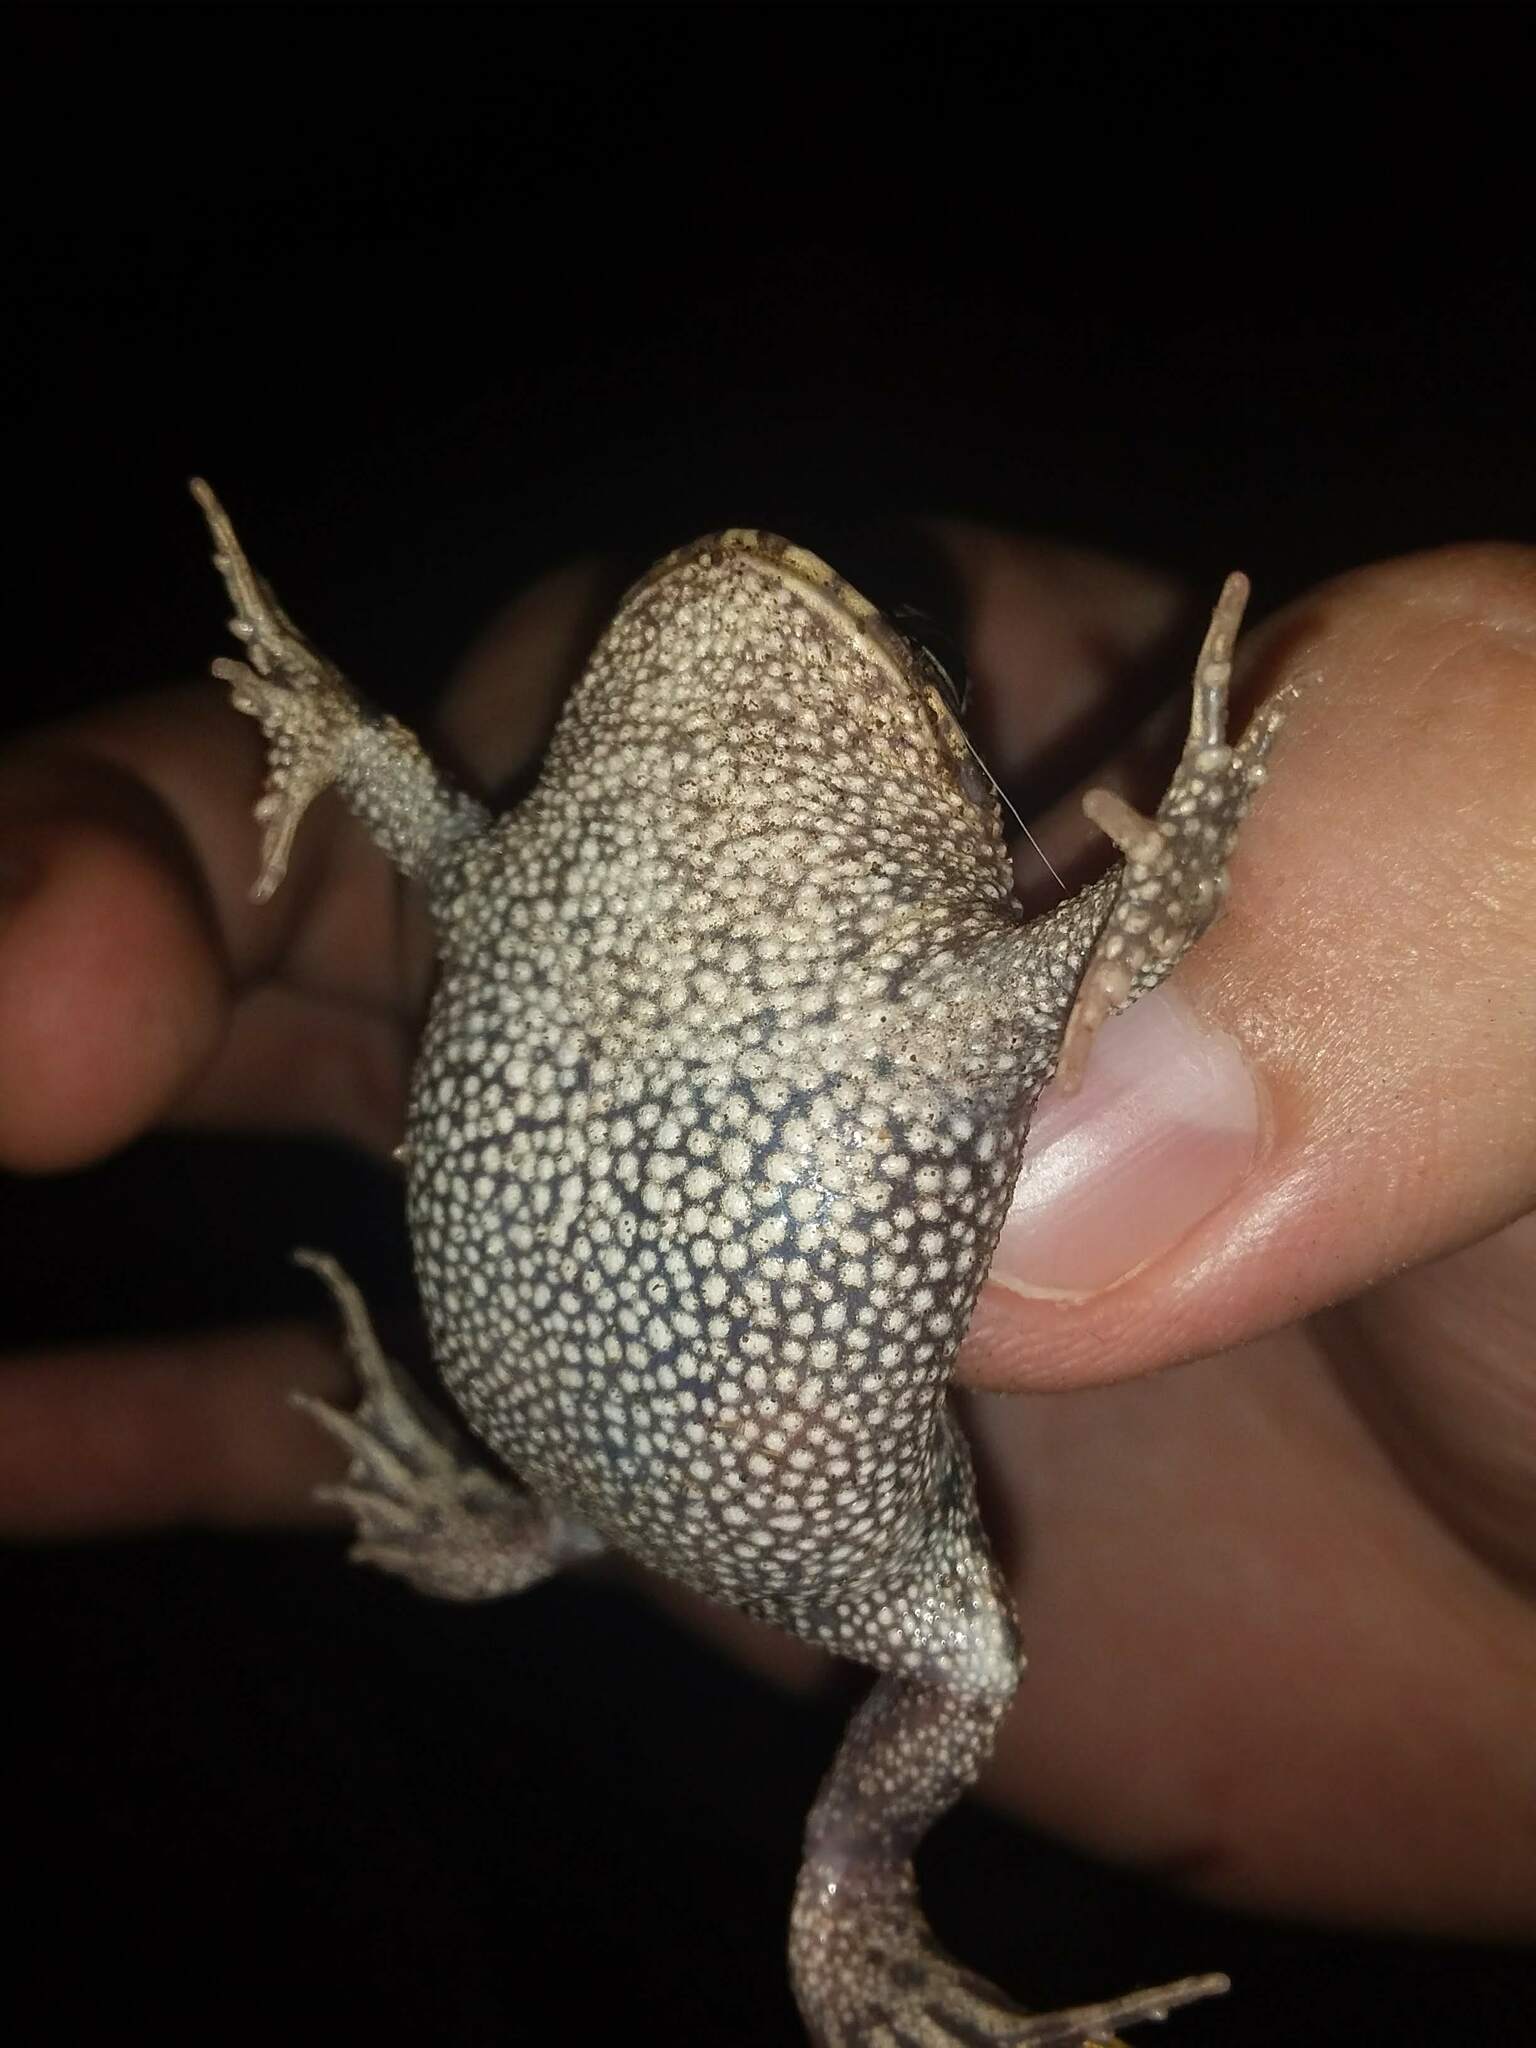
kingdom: Animalia
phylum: Chordata
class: Amphibia
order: Anura
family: Odontophrynidae
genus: Odontophrynus
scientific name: Odontophrynus
